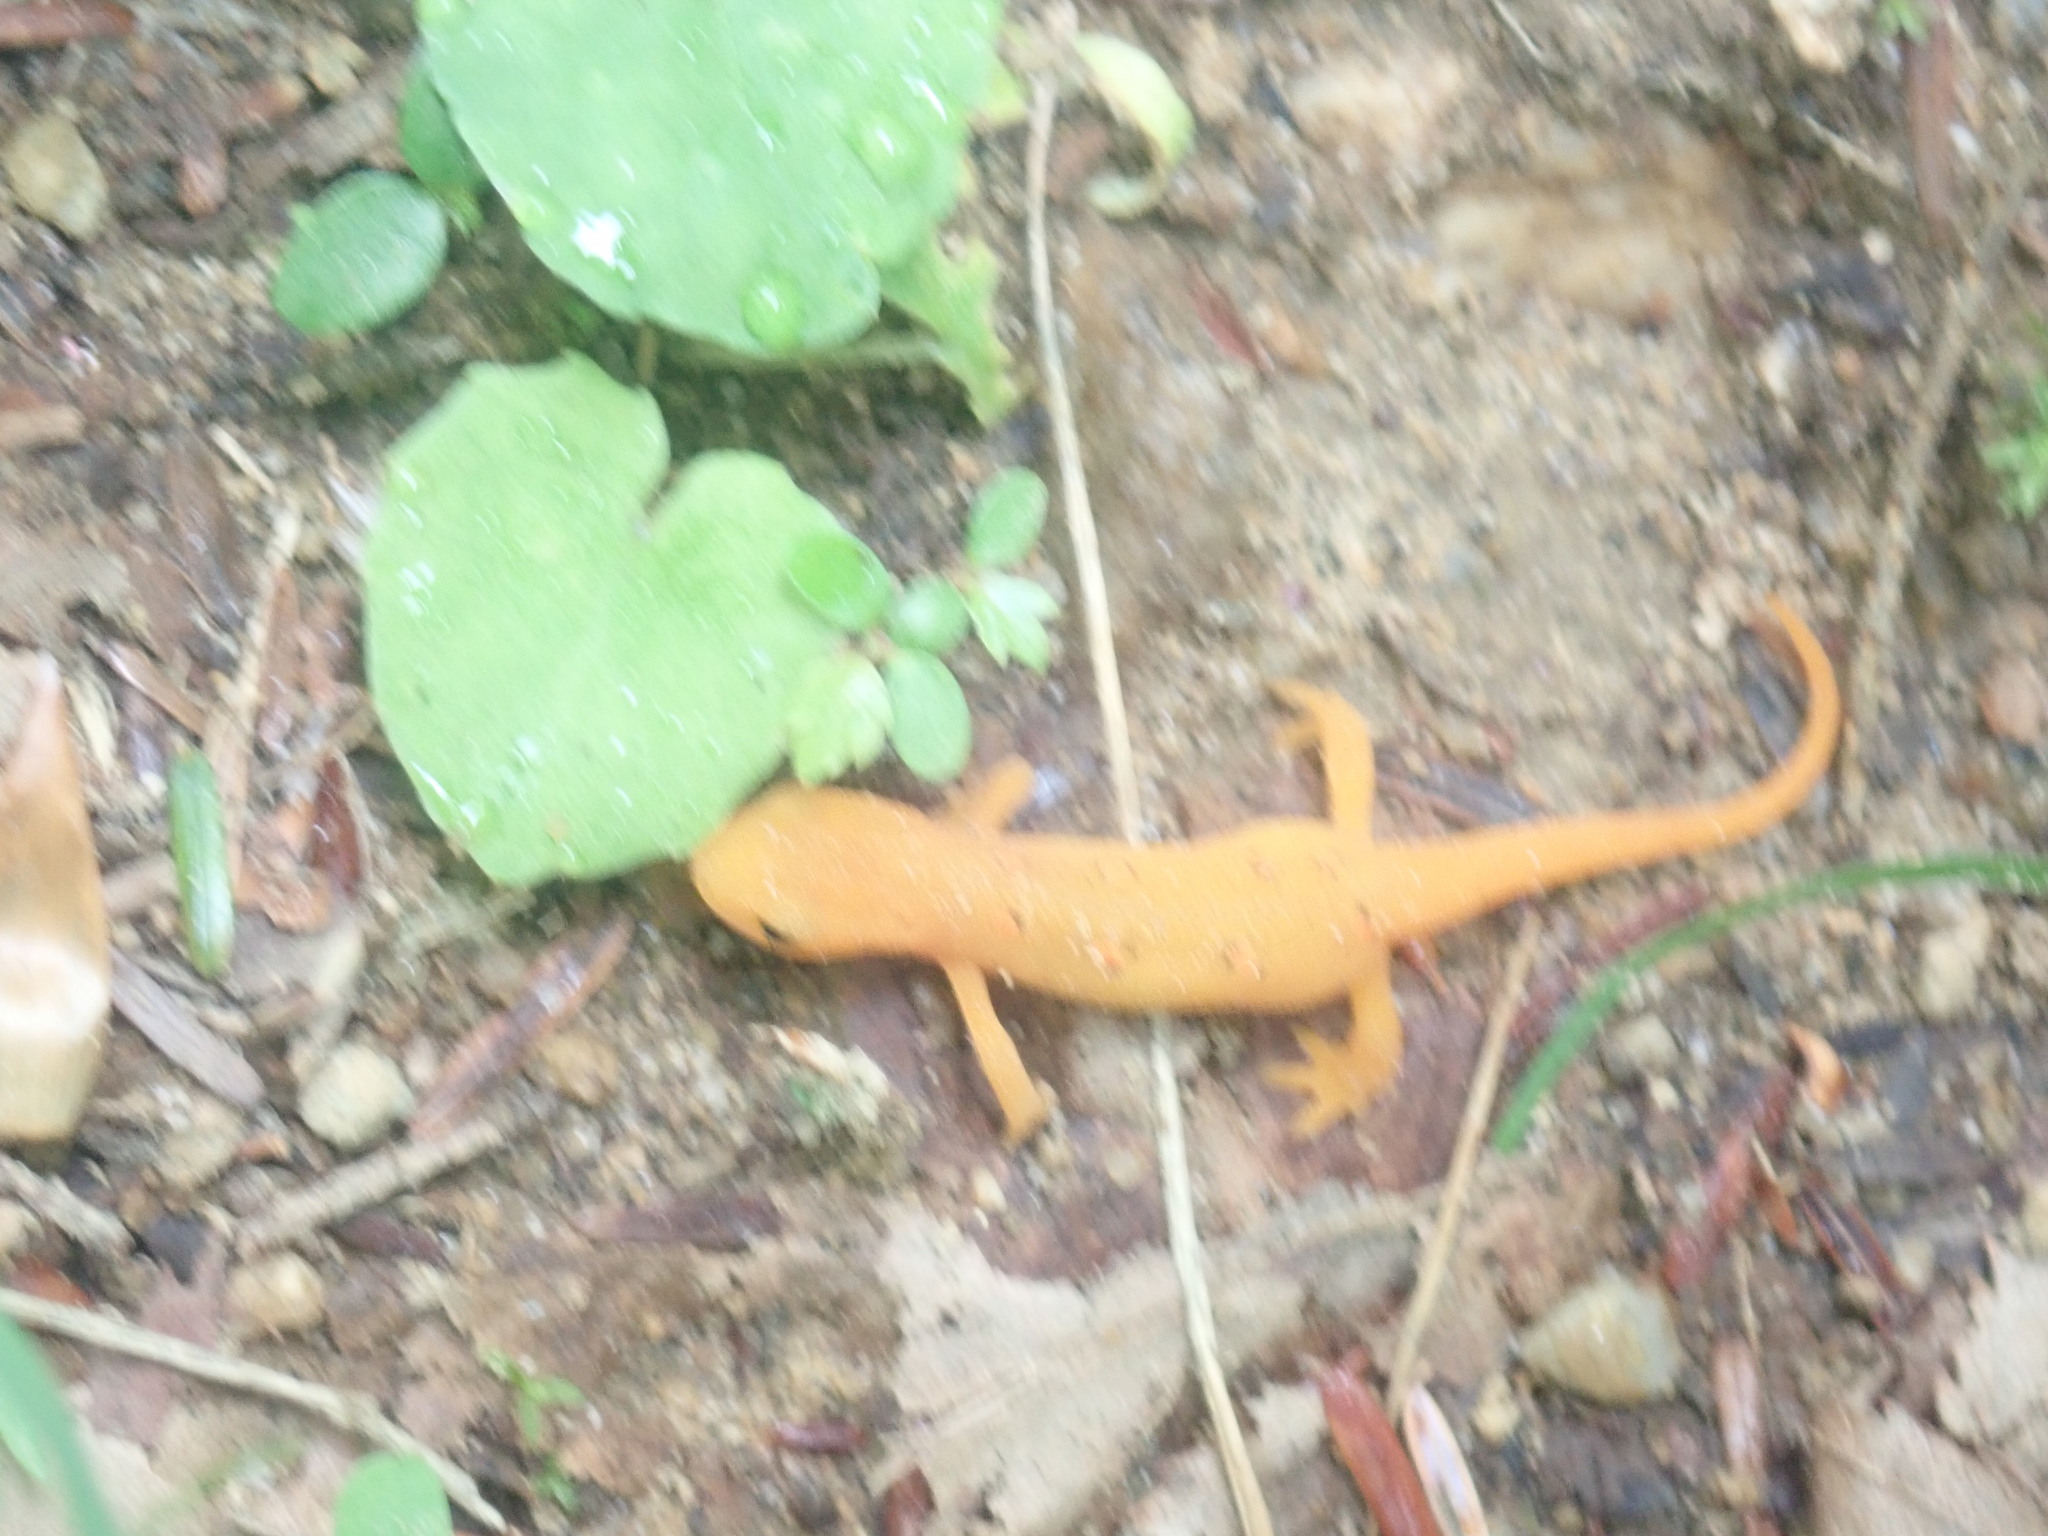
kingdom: Animalia
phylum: Chordata
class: Amphibia
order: Caudata
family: Salamandridae
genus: Notophthalmus
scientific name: Notophthalmus viridescens
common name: Eastern newt
